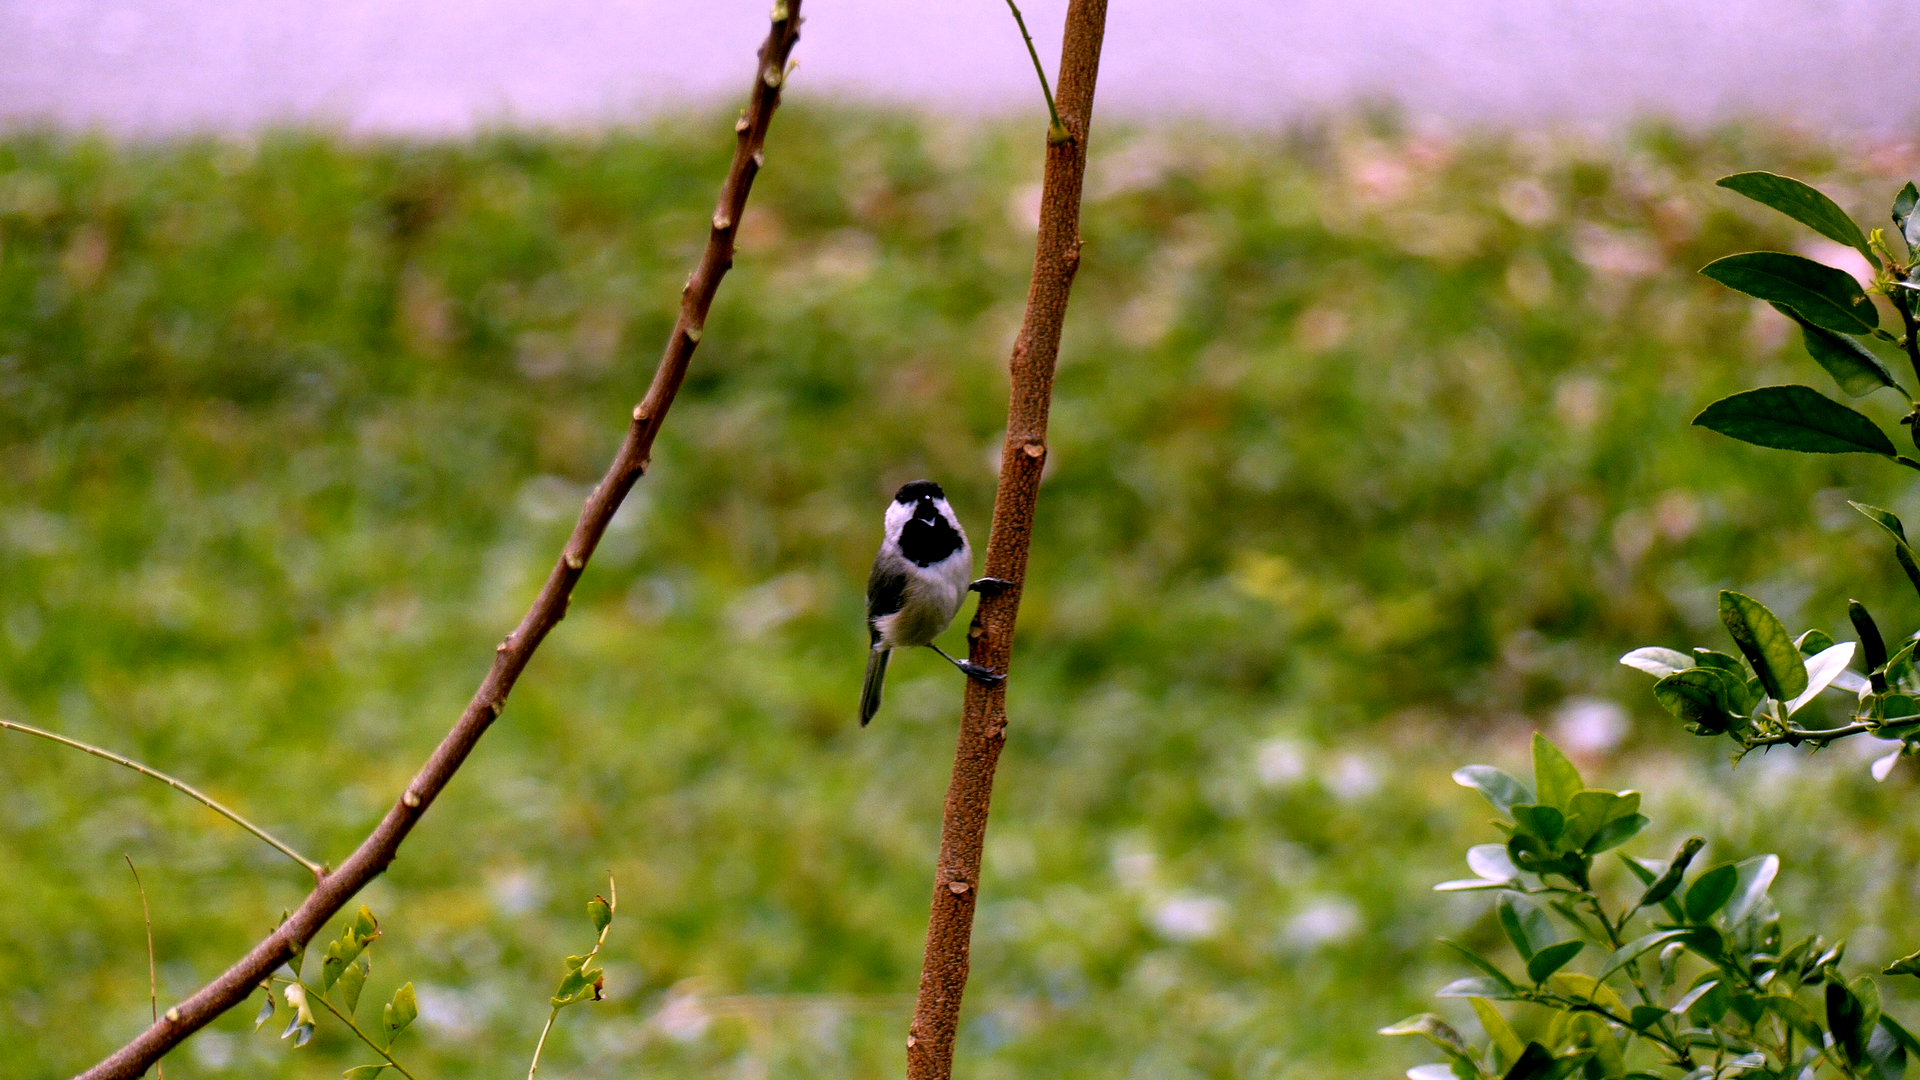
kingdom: Animalia
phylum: Chordata
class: Aves
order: Passeriformes
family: Paridae
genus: Poecile
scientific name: Poecile carolinensis
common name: Carolina chickadee
